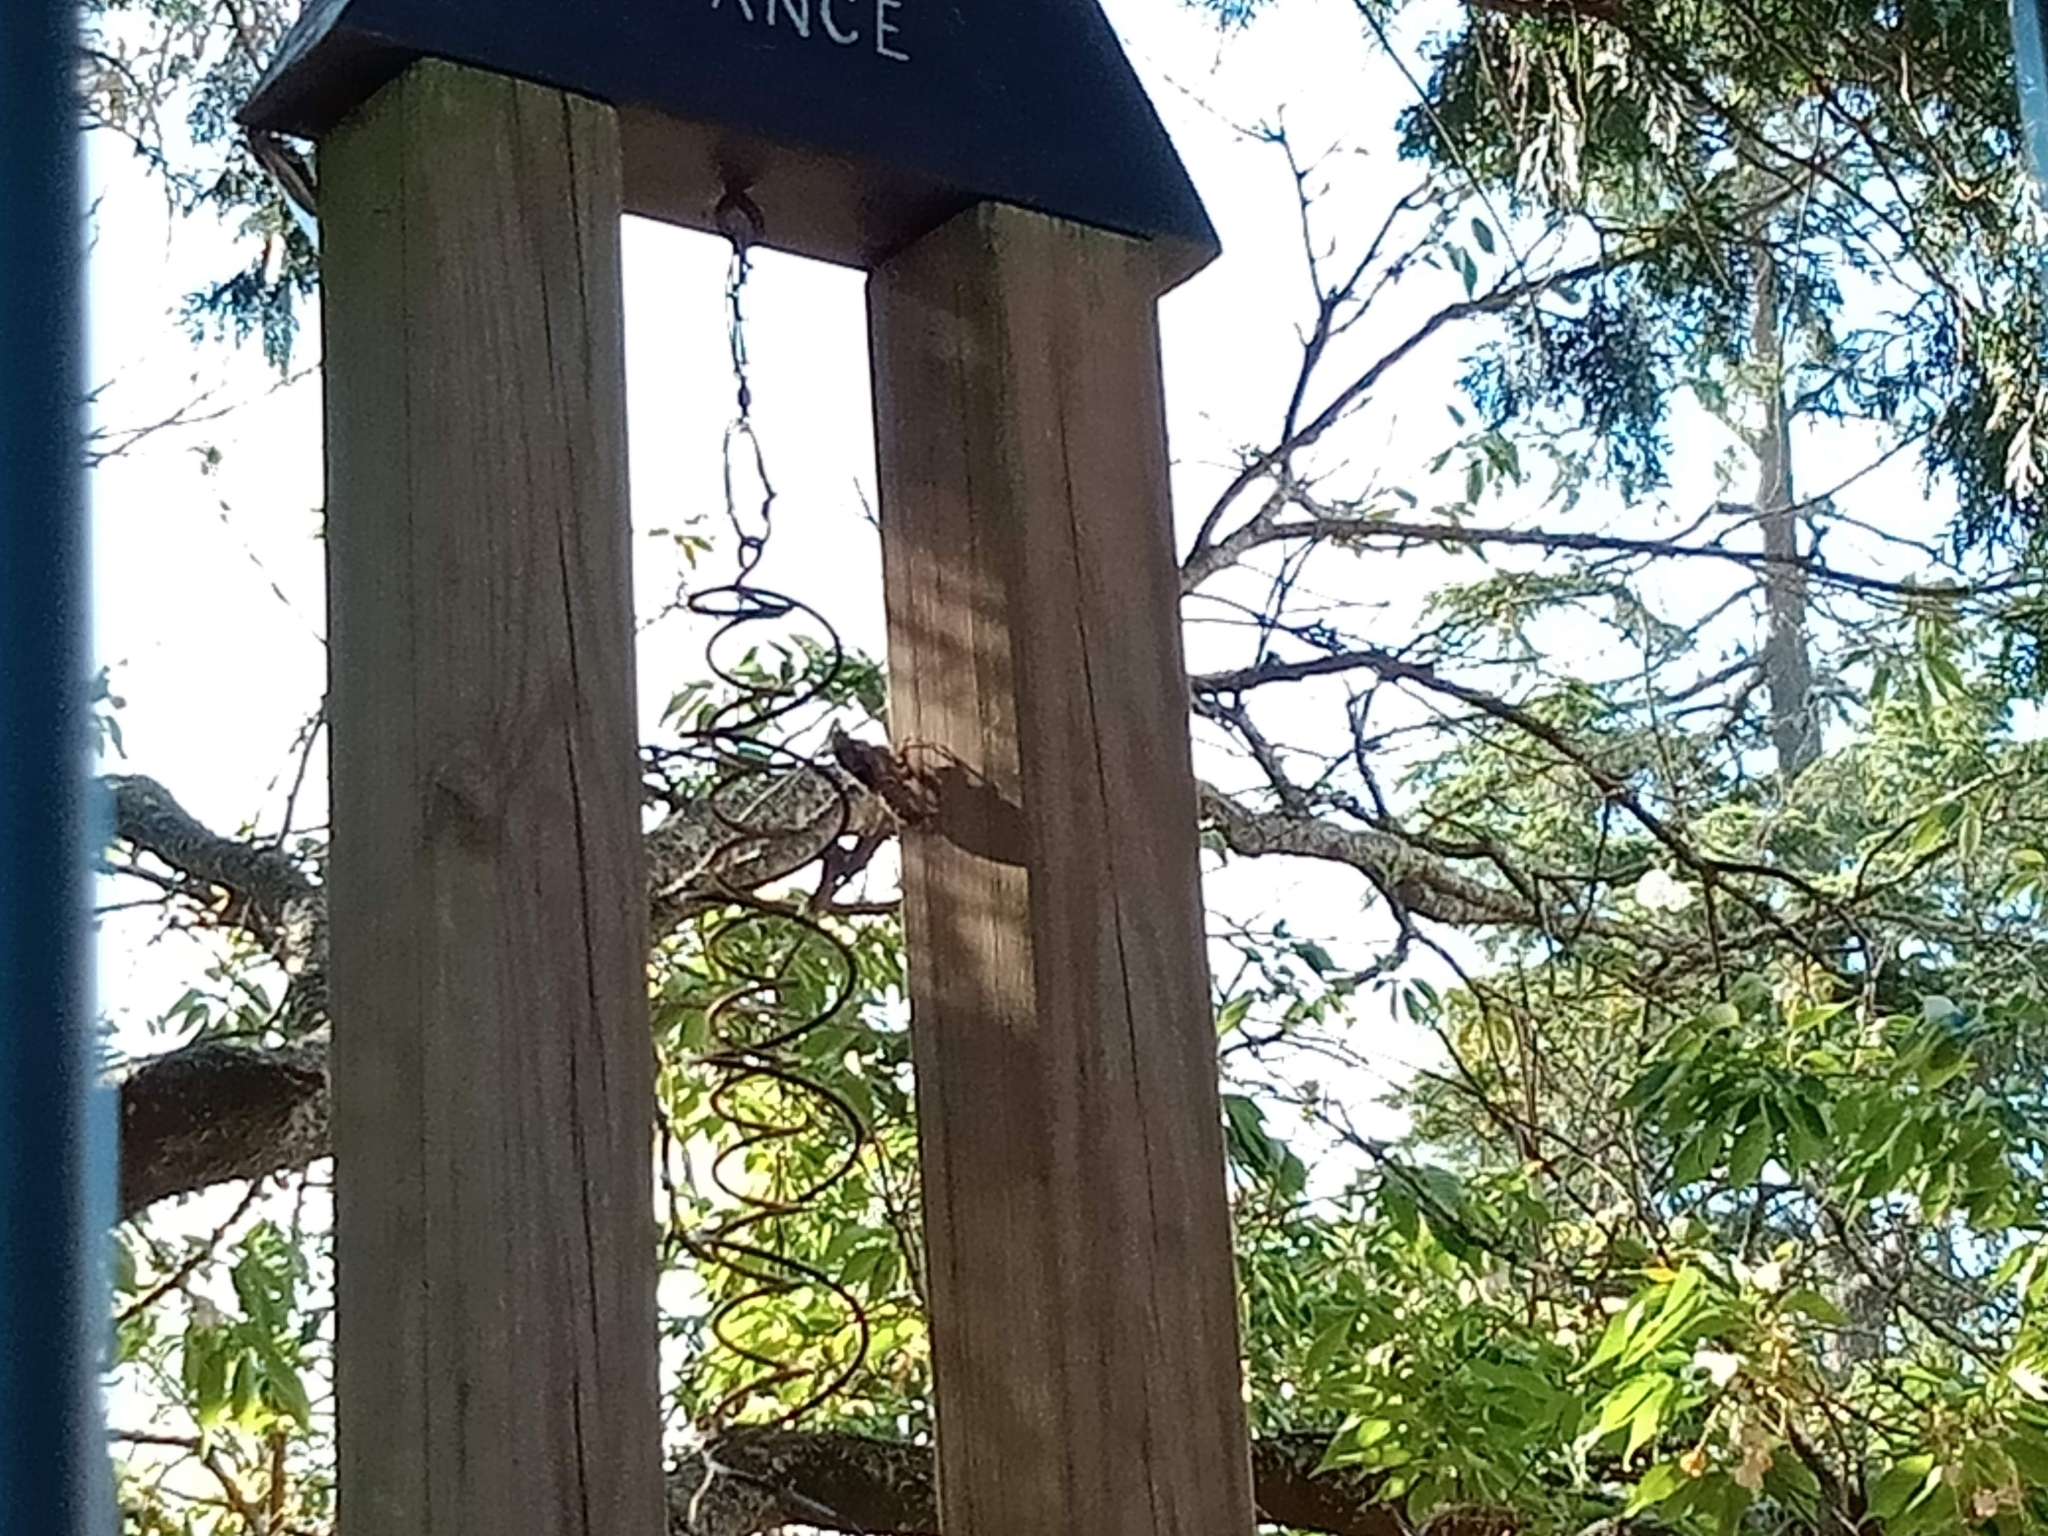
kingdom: Animalia
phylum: Arthropoda
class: Insecta
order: Hemiptera
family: Cicadidae
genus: Cyclochila
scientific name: Cyclochila australasiae
